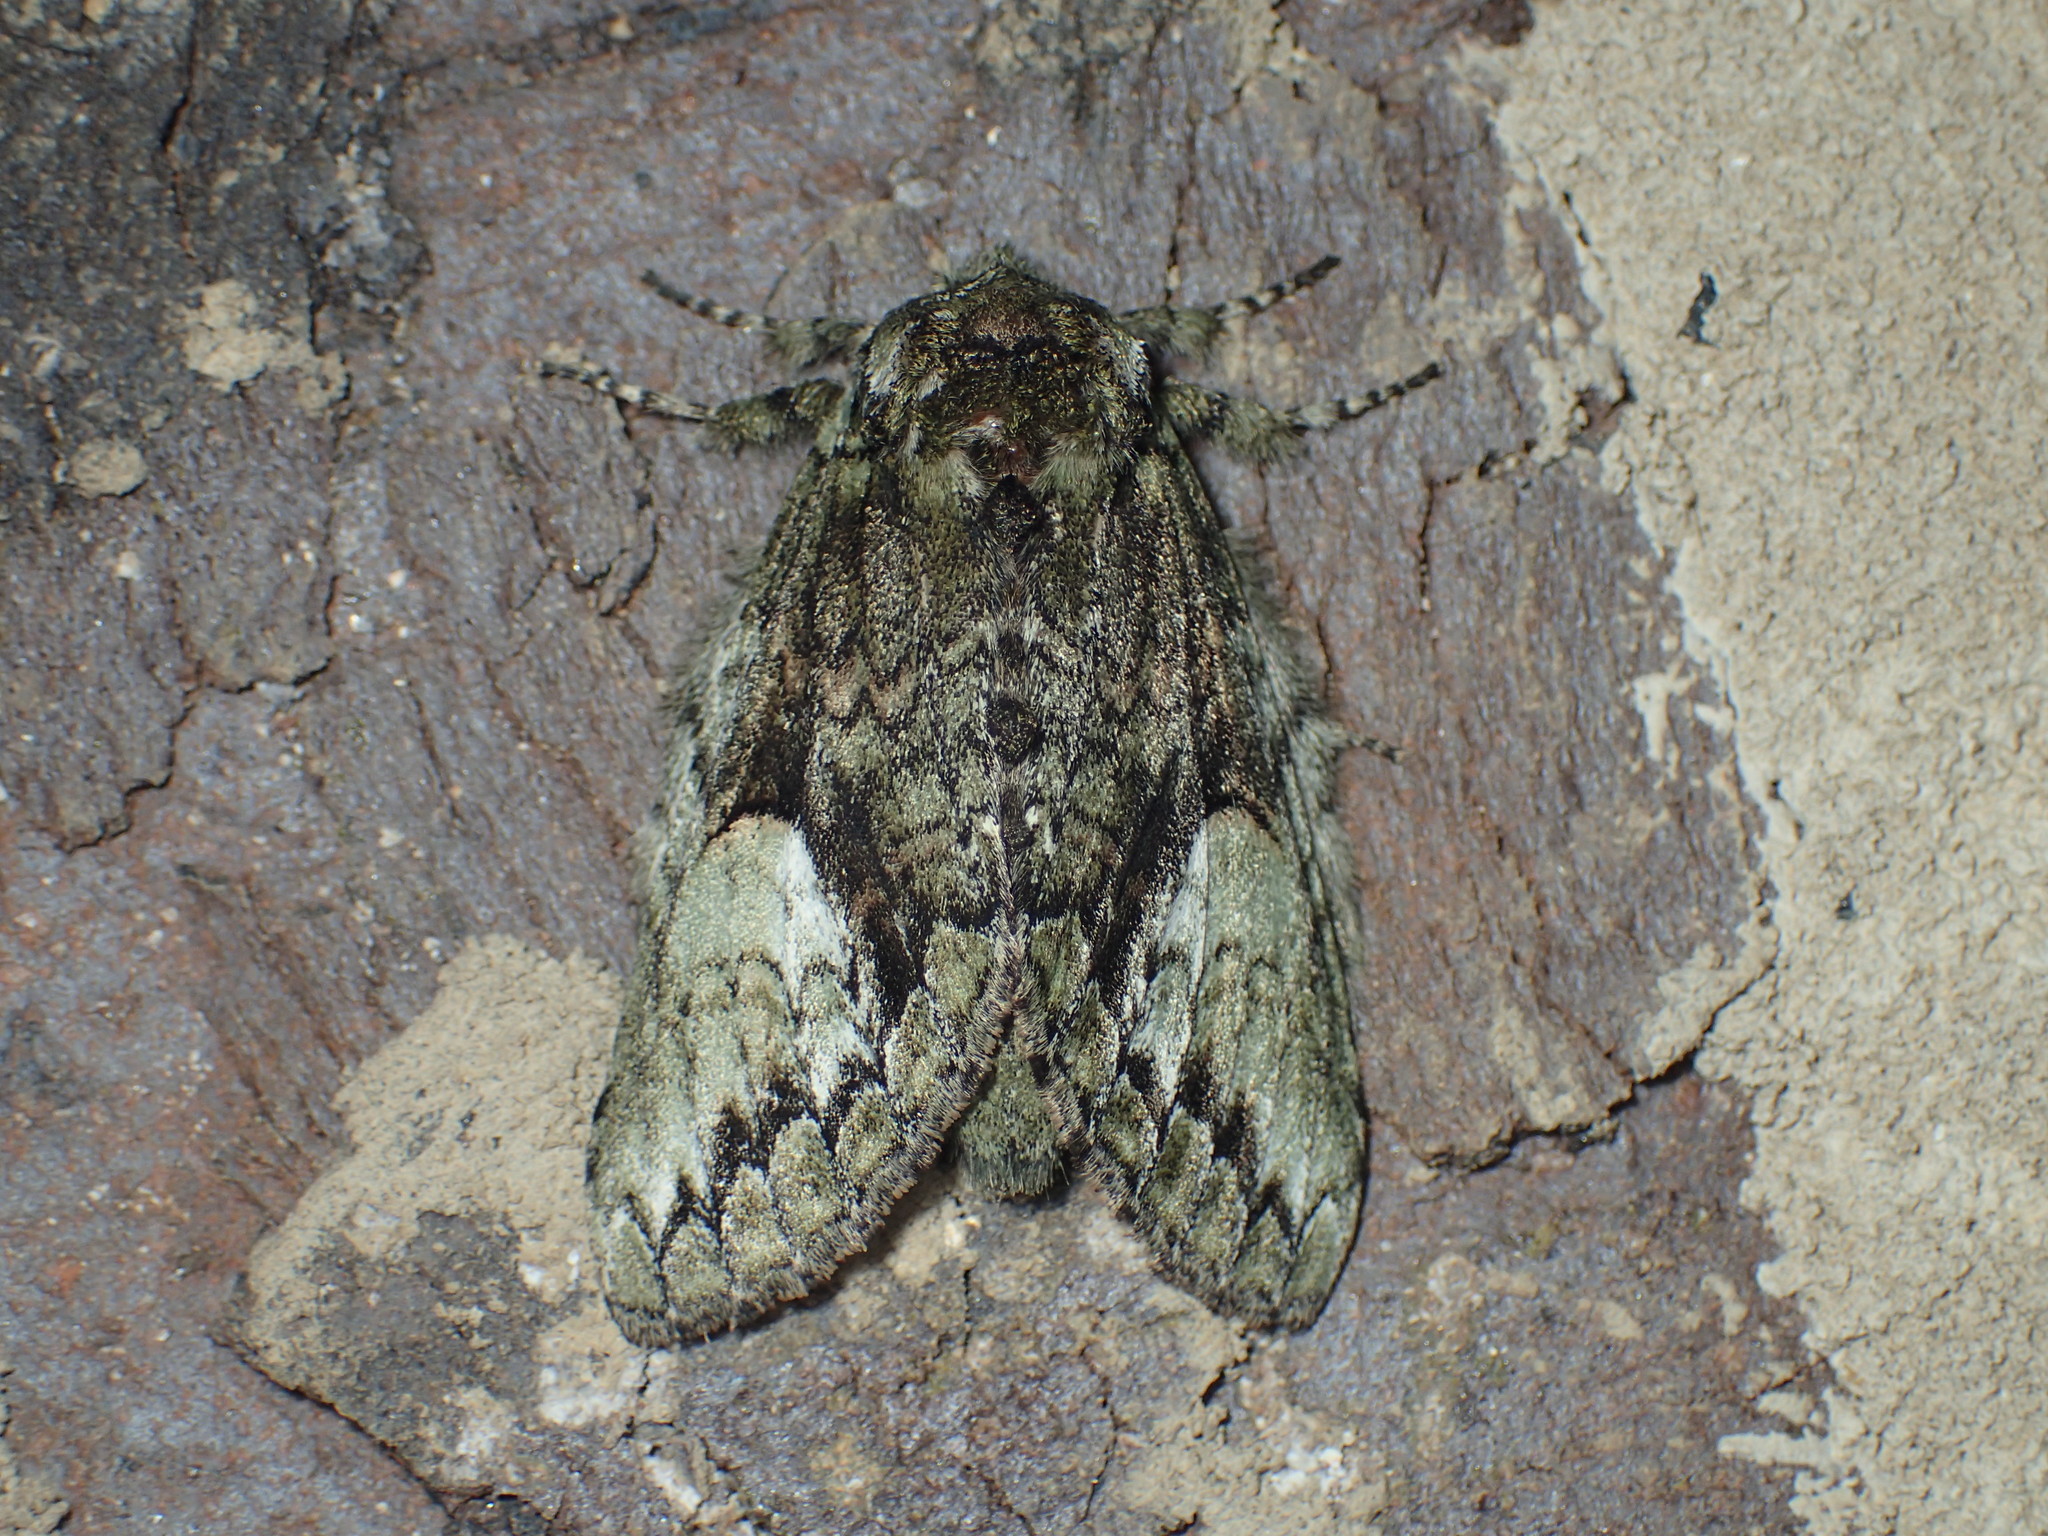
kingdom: Animalia
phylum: Arthropoda
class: Insecta
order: Lepidoptera
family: Notodontidae
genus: Heterocampa
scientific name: Heterocampa
